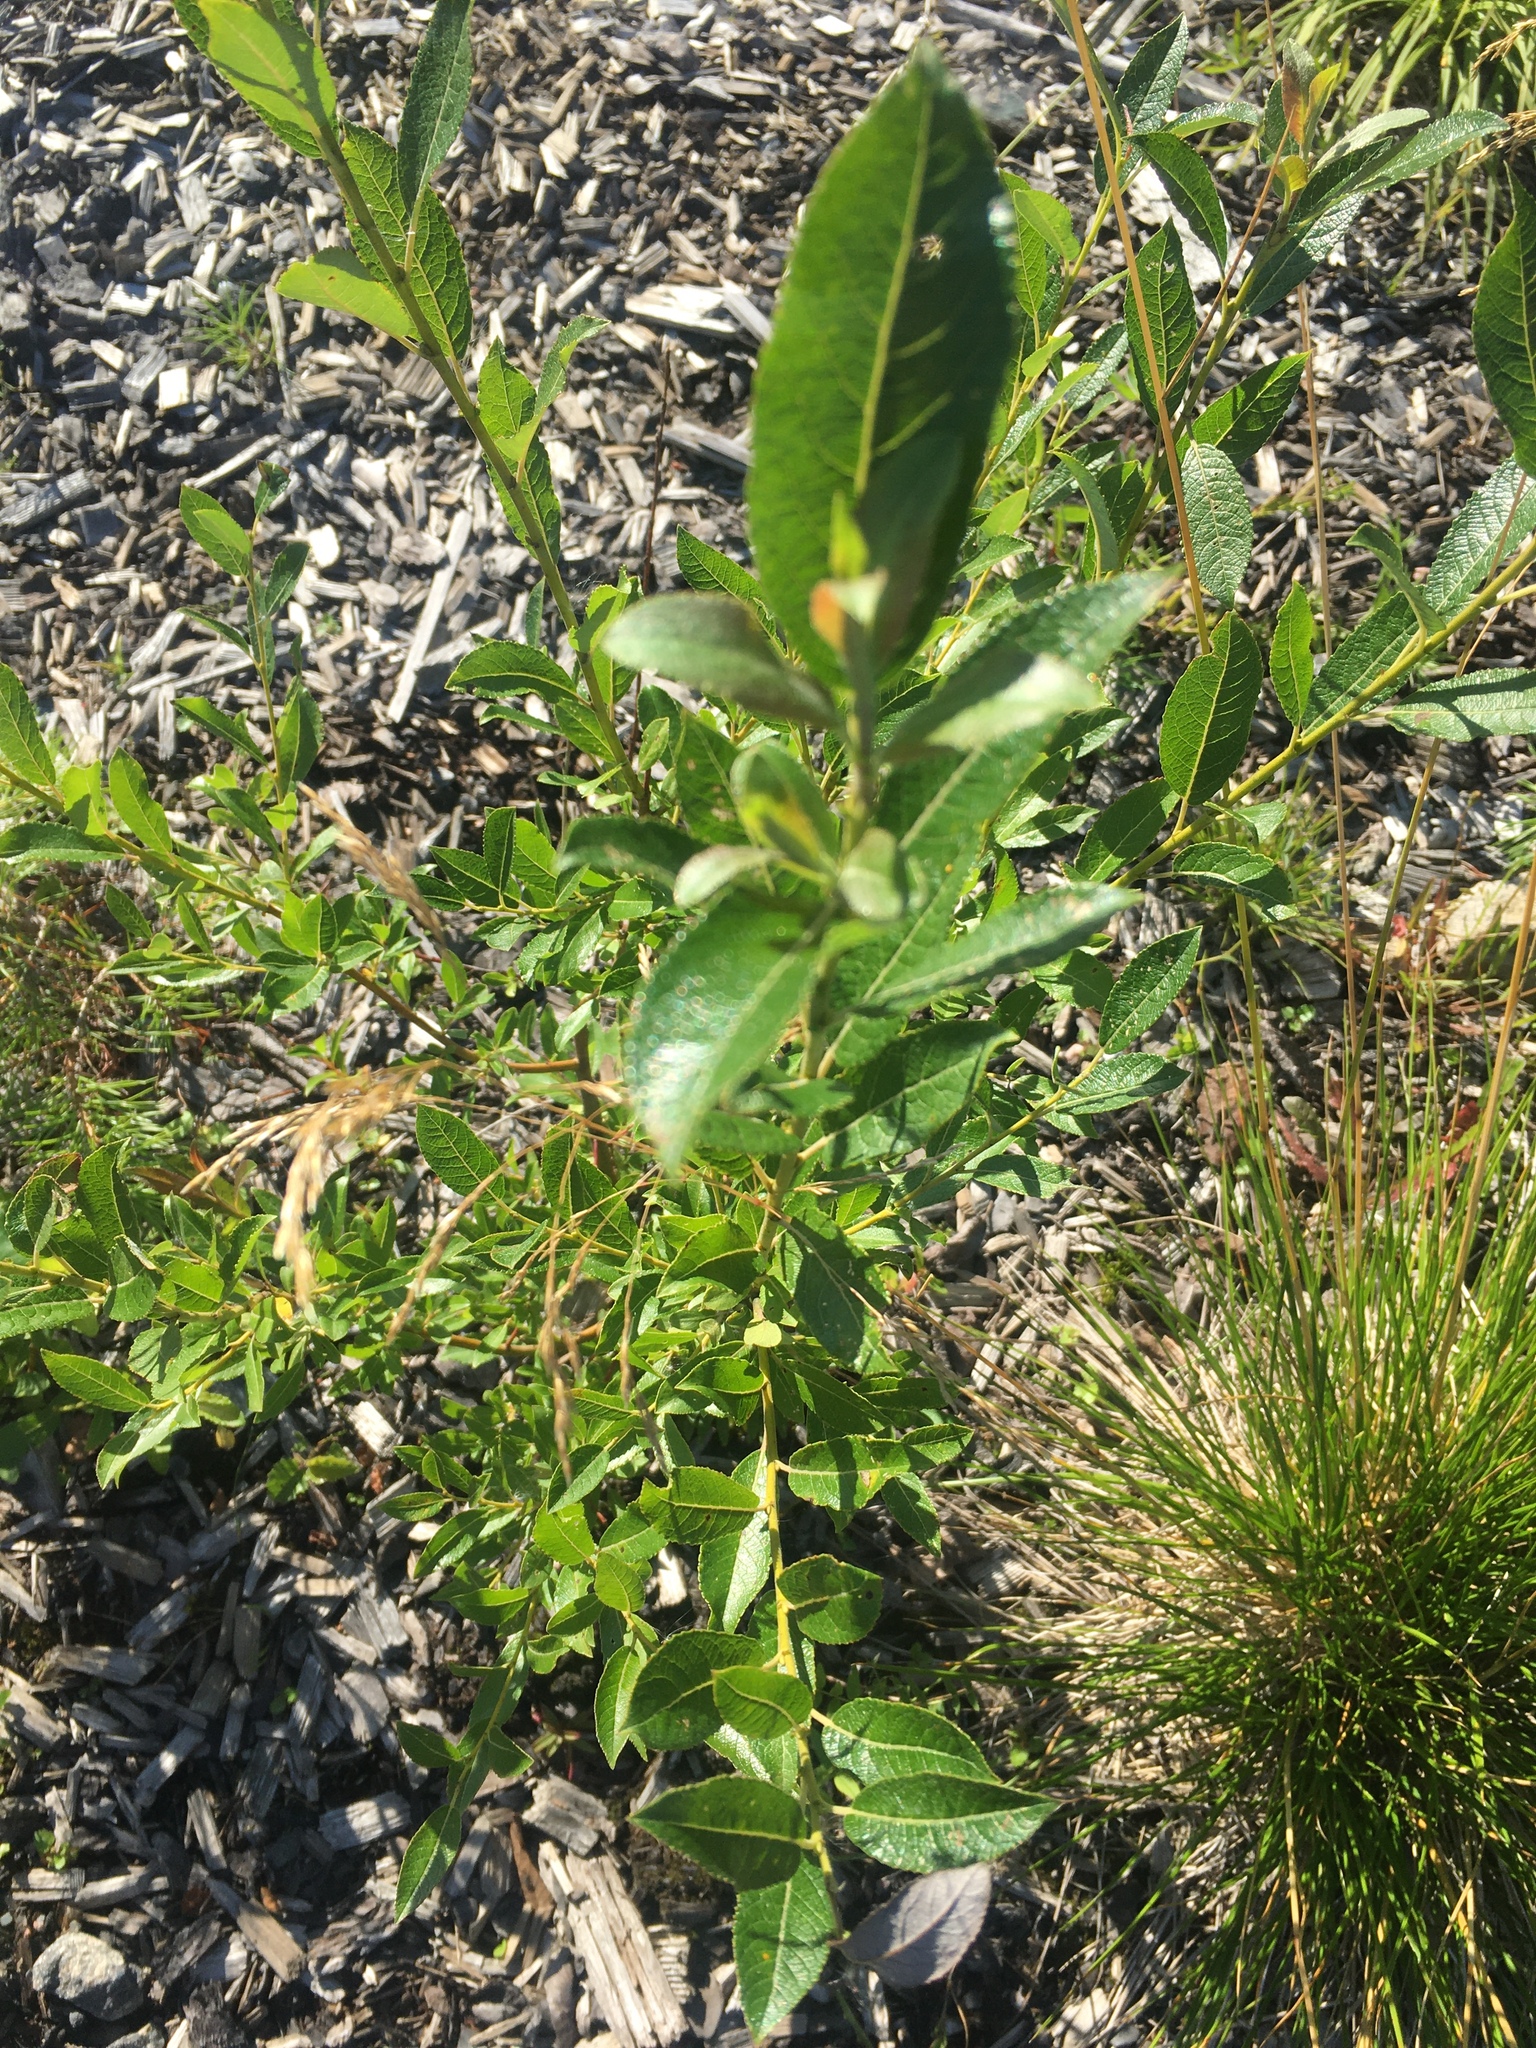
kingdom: Plantae
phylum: Tracheophyta
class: Magnoliopsida
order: Malpighiales
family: Salicaceae
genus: Salix
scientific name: Salix myrsinifolia
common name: Dark-leaved willow
